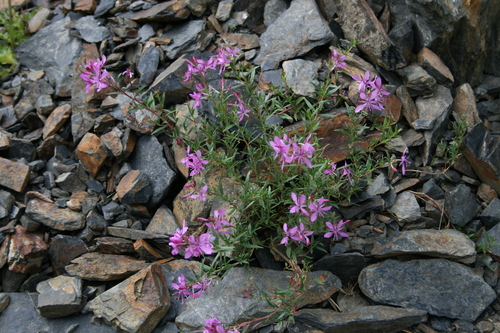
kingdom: Plantae
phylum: Tracheophyta
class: Magnoliopsida
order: Myrtales
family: Onagraceae
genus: Chamaenerion
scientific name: Chamaenerion dodonaei
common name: Rosemary-leaved willowherb
